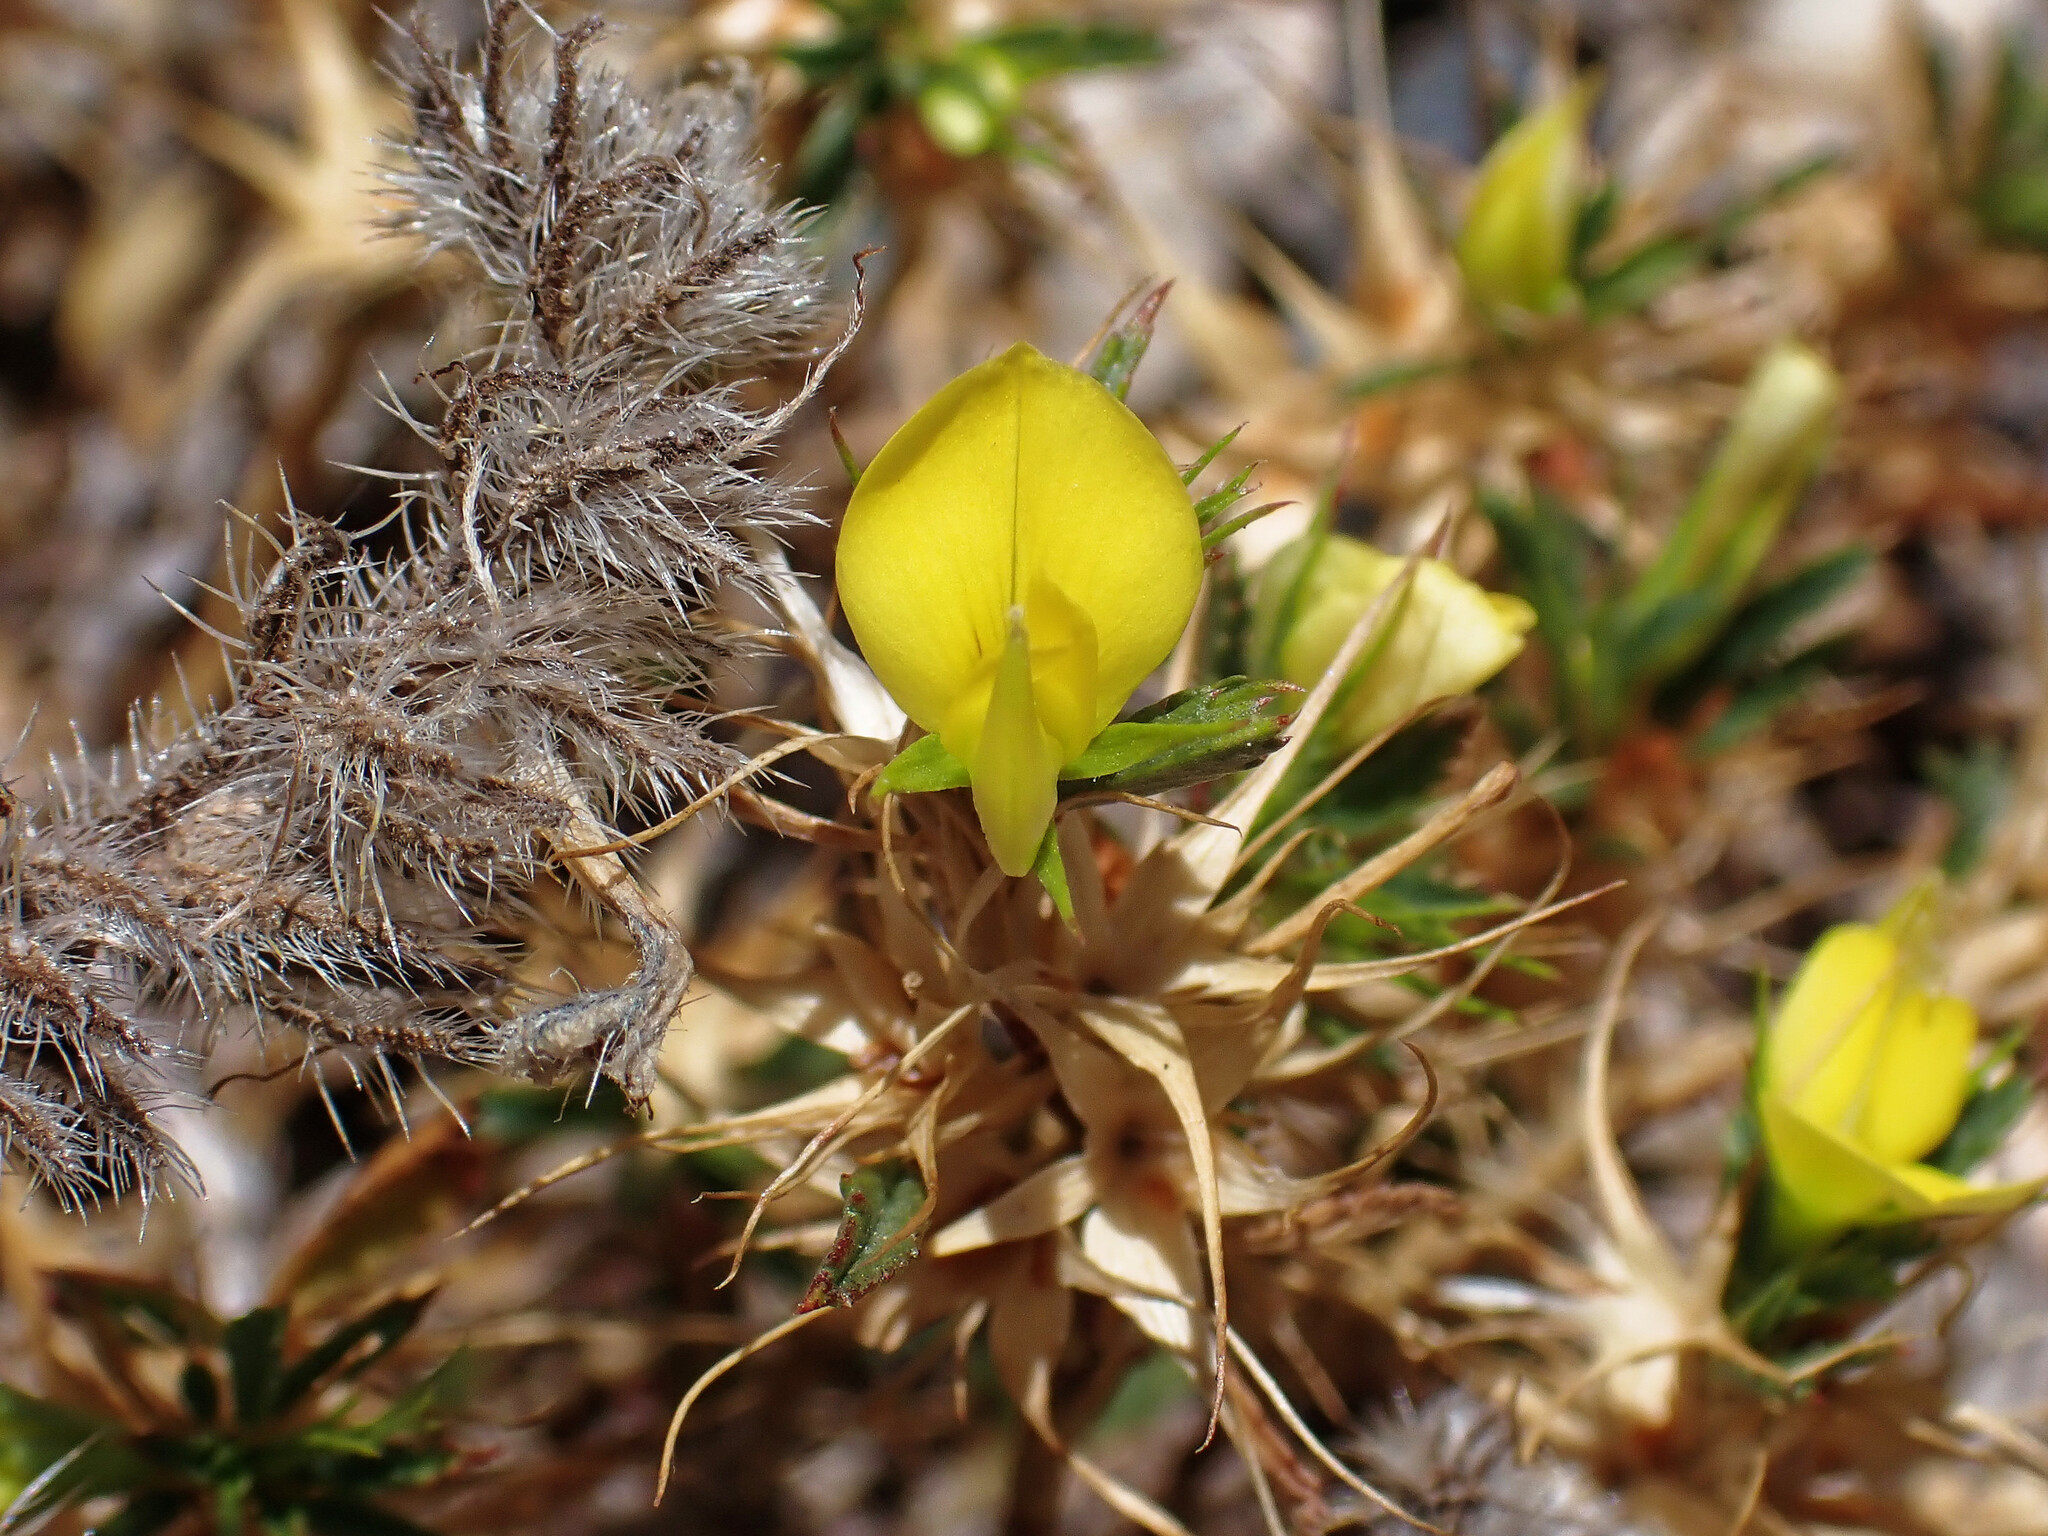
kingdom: Plantae
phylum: Tracheophyta
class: Magnoliopsida
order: Fabales
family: Fabaceae
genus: Ononis
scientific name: Ononis minutissima
